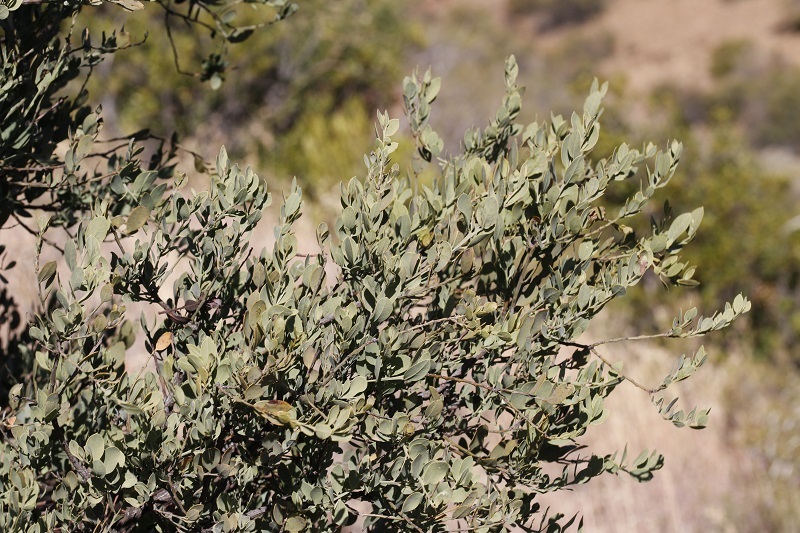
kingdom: Plantae
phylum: Tracheophyta
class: Magnoliopsida
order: Santalales
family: Santalaceae
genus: Osyris
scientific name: Osyris lanceolata
